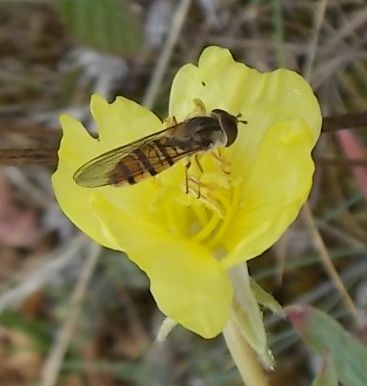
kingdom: Animalia
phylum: Arthropoda
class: Insecta
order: Diptera
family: Syrphidae
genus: Episyrphus
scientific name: Episyrphus balteatus
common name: Marmalade hoverfly
